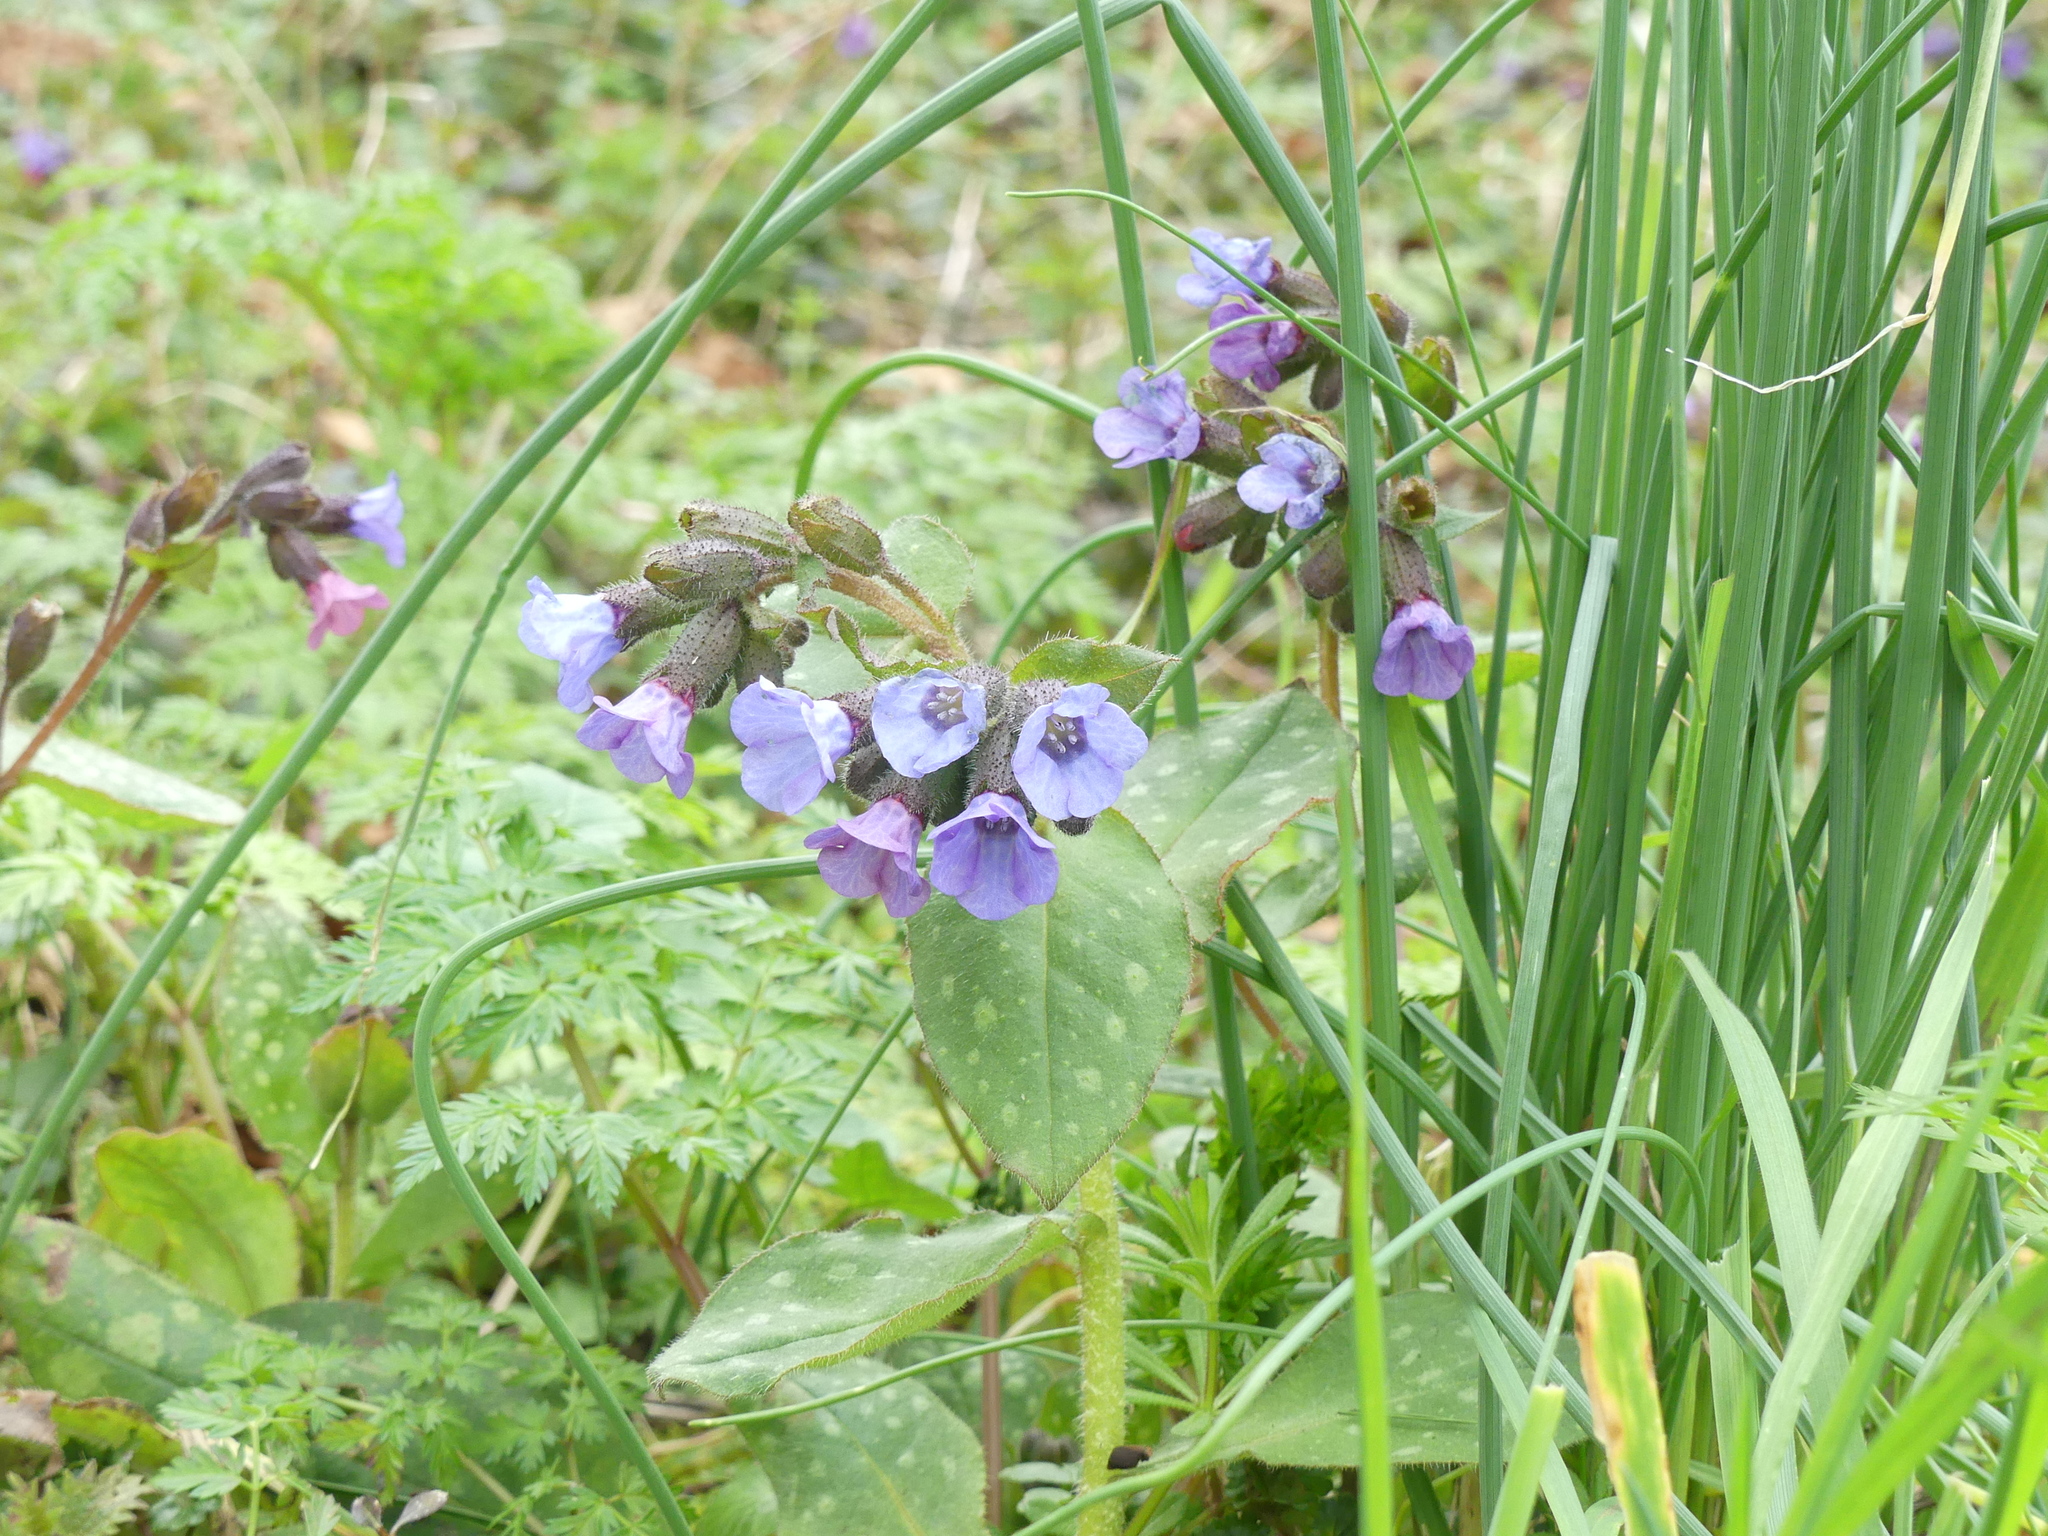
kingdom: Plantae
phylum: Tracheophyta
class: Magnoliopsida
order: Boraginales
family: Boraginaceae
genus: Pulmonaria
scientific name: Pulmonaria officinalis
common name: Lungwort
